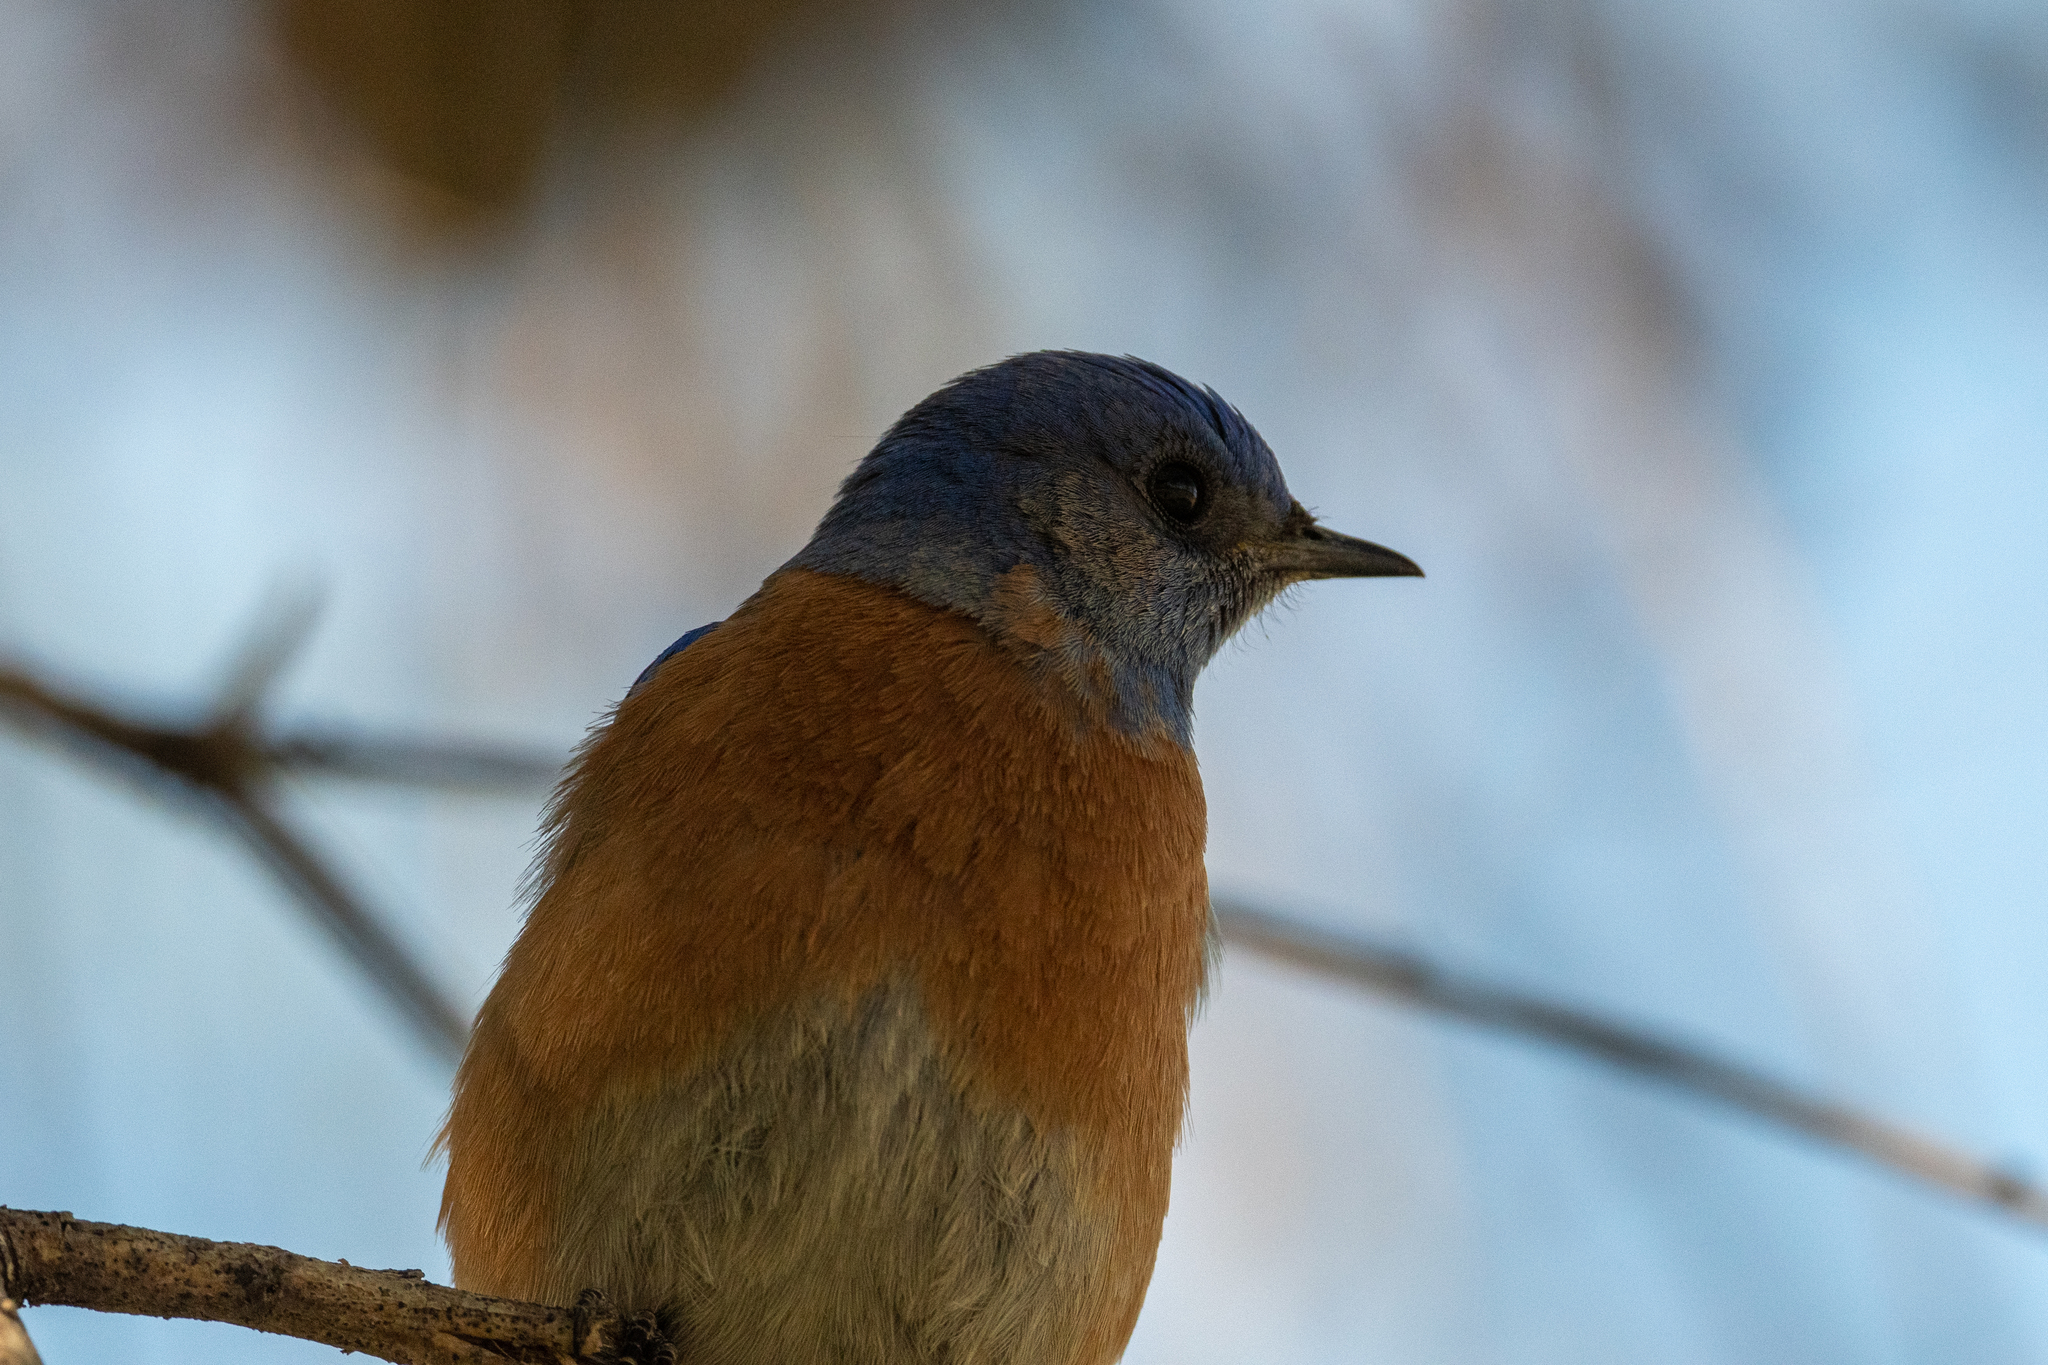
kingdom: Animalia
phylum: Chordata
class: Aves
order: Passeriformes
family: Turdidae
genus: Sialia
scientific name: Sialia mexicana
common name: Western bluebird
